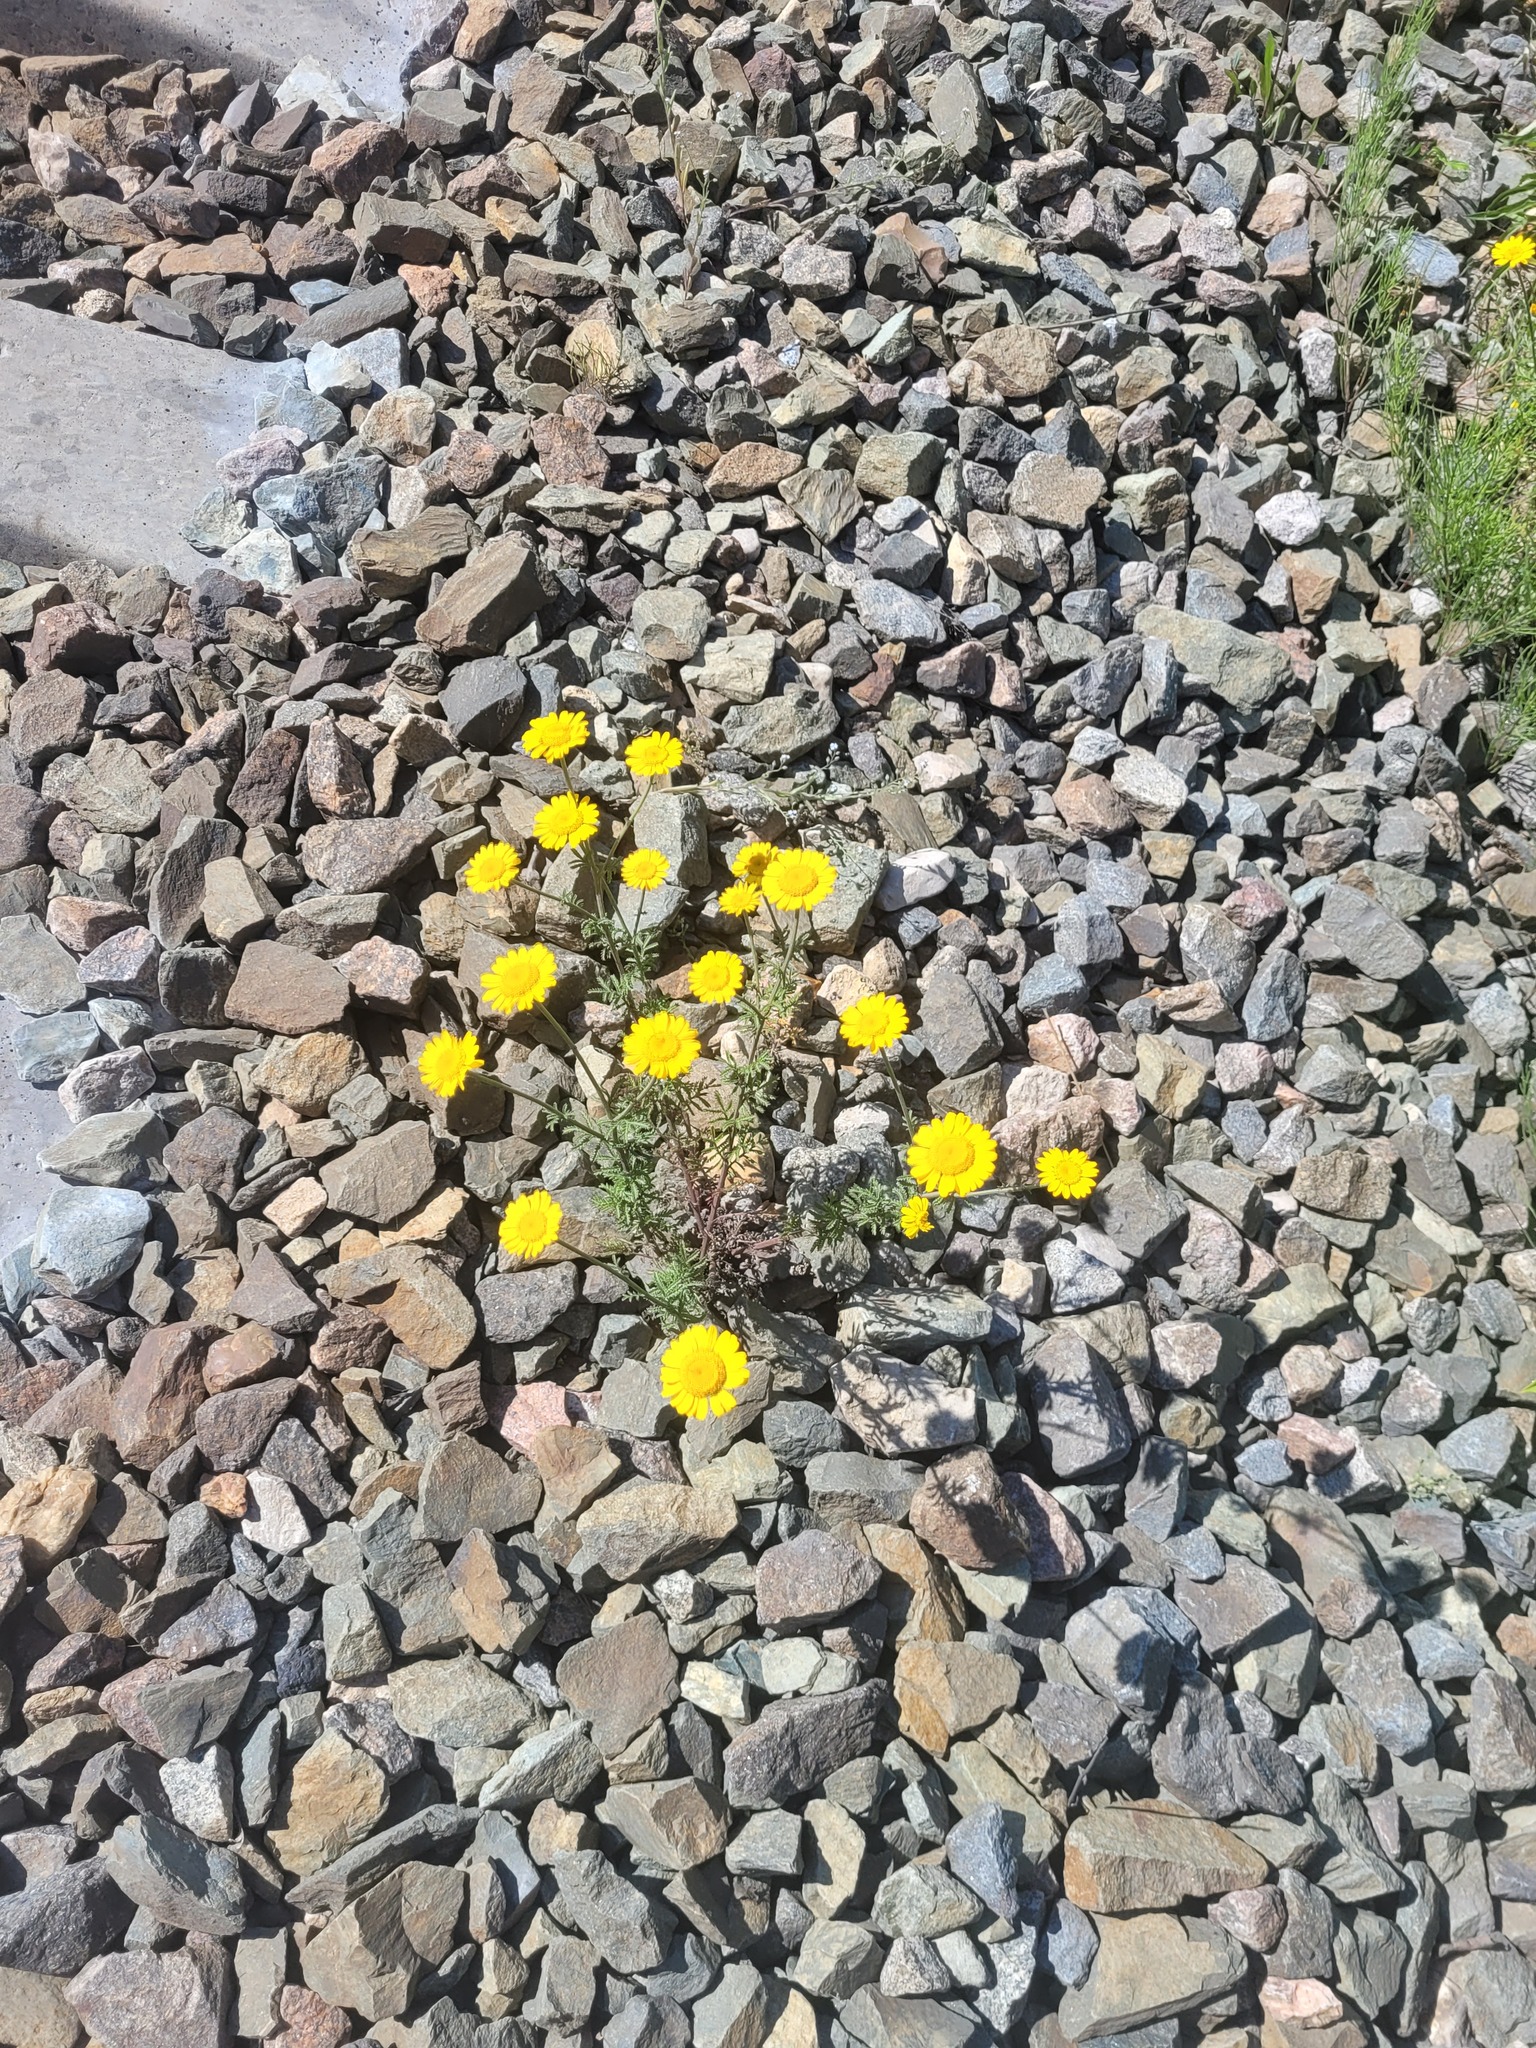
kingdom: Plantae
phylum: Tracheophyta
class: Magnoliopsida
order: Asterales
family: Asteraceae
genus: Cota
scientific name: Cota tinctoria
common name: Golden chamomile
